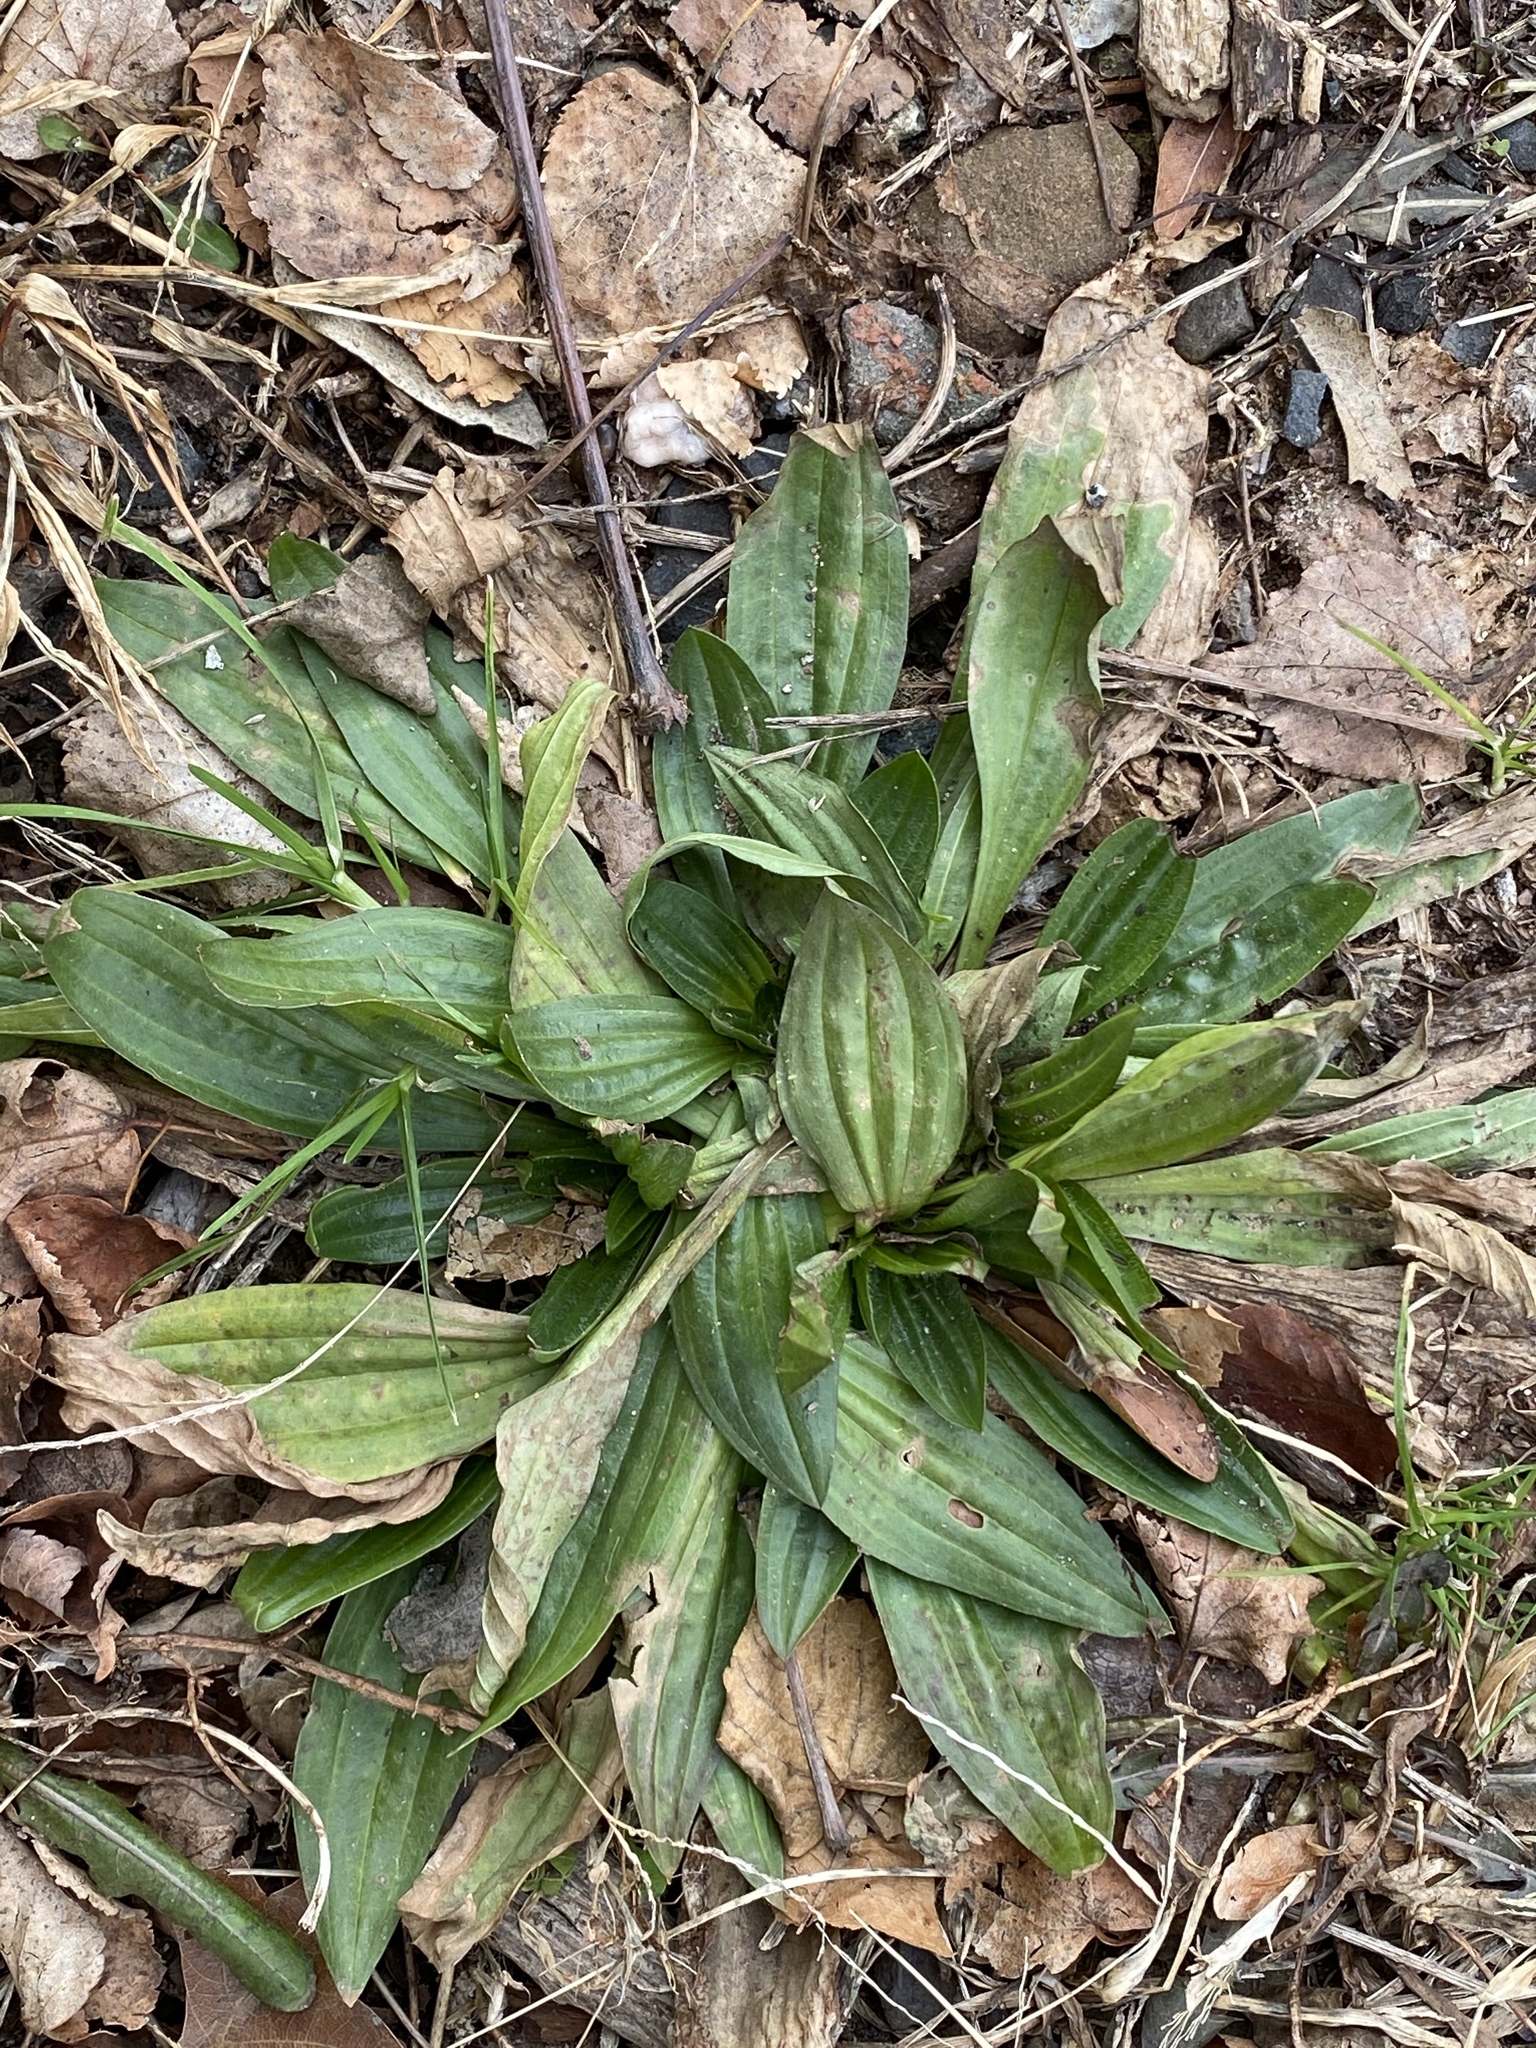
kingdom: Plantae
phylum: Tracheophyta
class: Magnoliopsida
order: Lamiales
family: Plantaginaceae
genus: Plantago
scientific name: Plantago lanceolata
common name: Ribwort plantain
